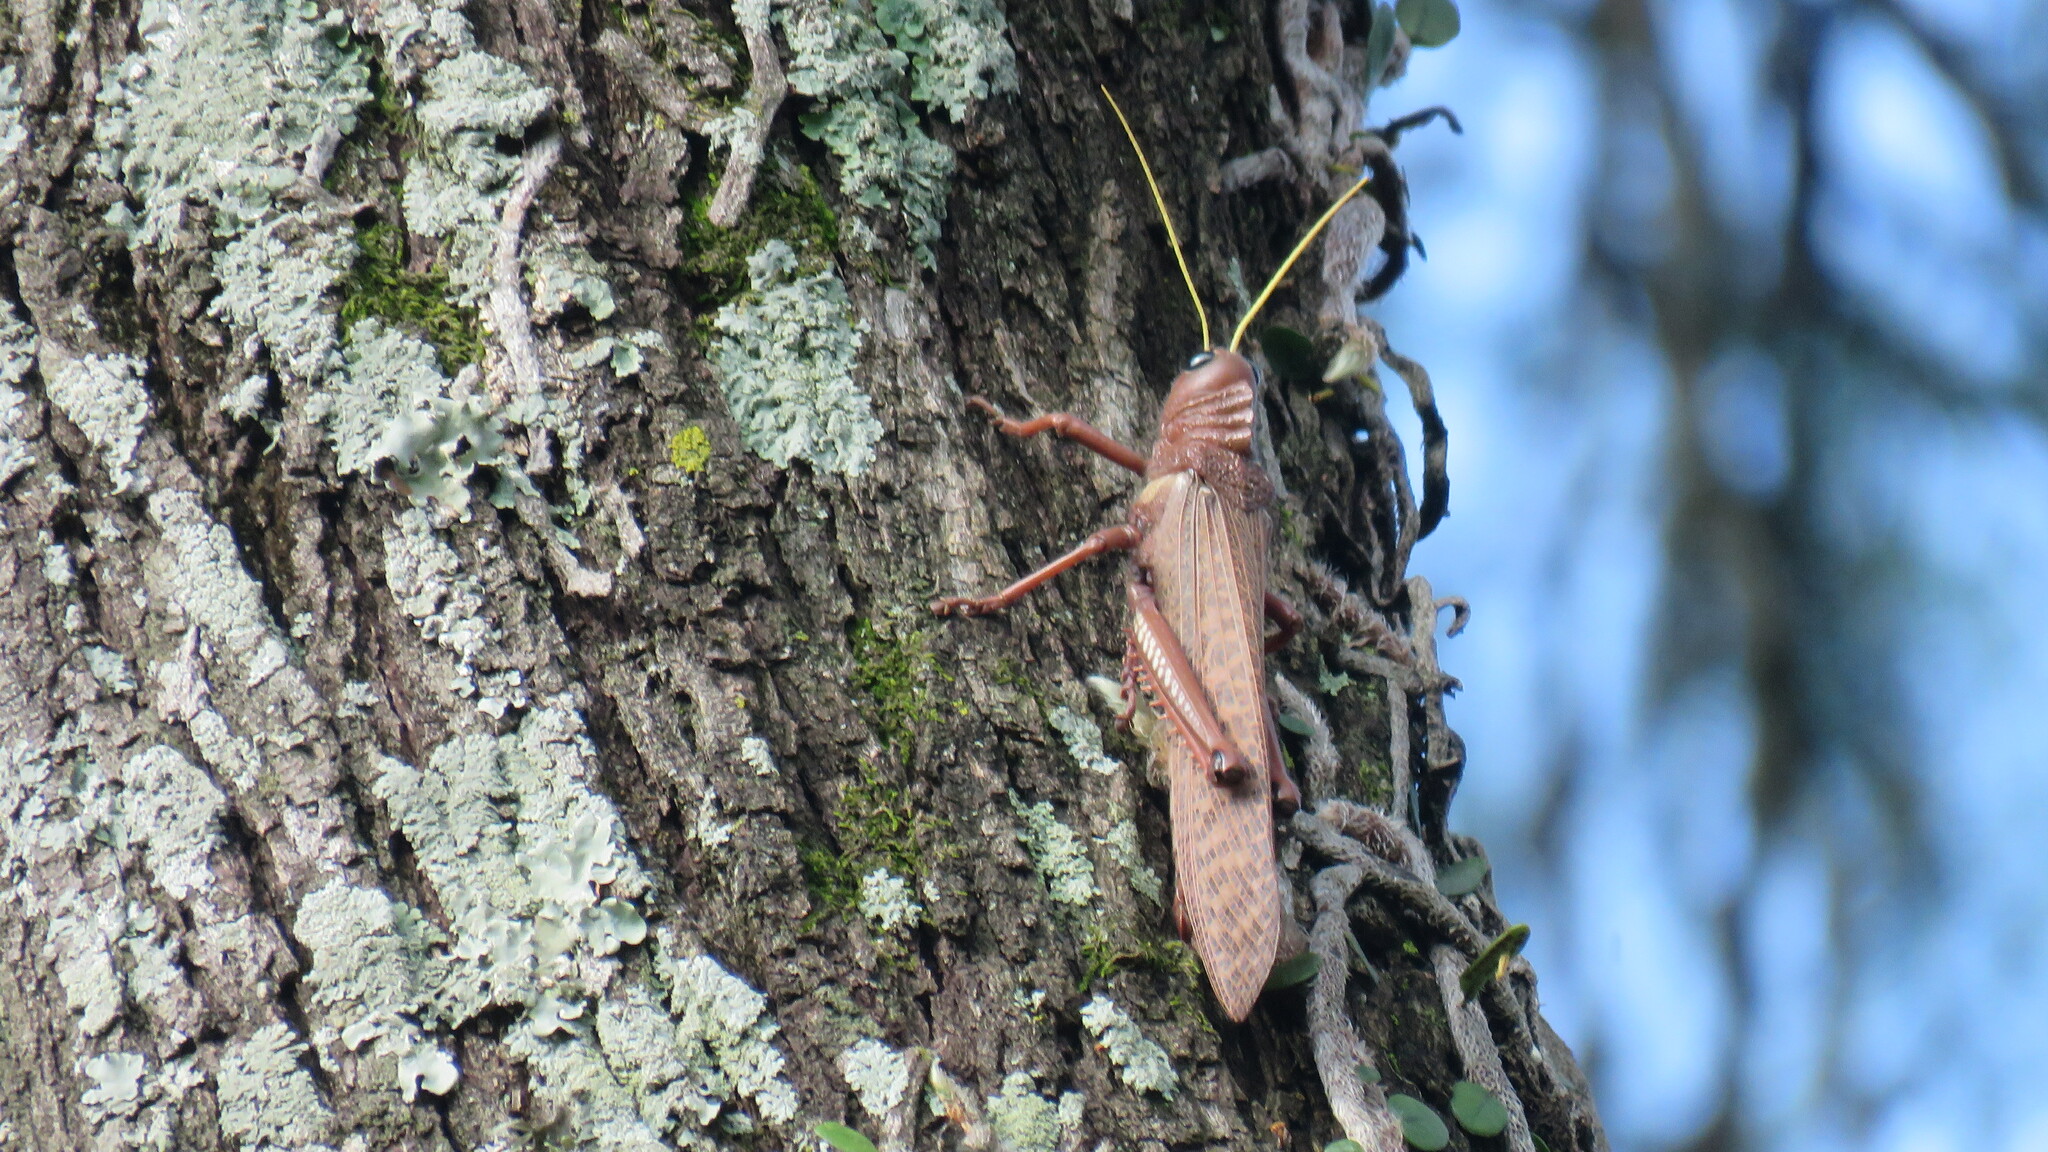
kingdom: Animalia
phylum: Arthropoda
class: Insecta
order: Orthoptera
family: Romaleidae
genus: Tropidacris
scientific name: Tropidacris collaris
